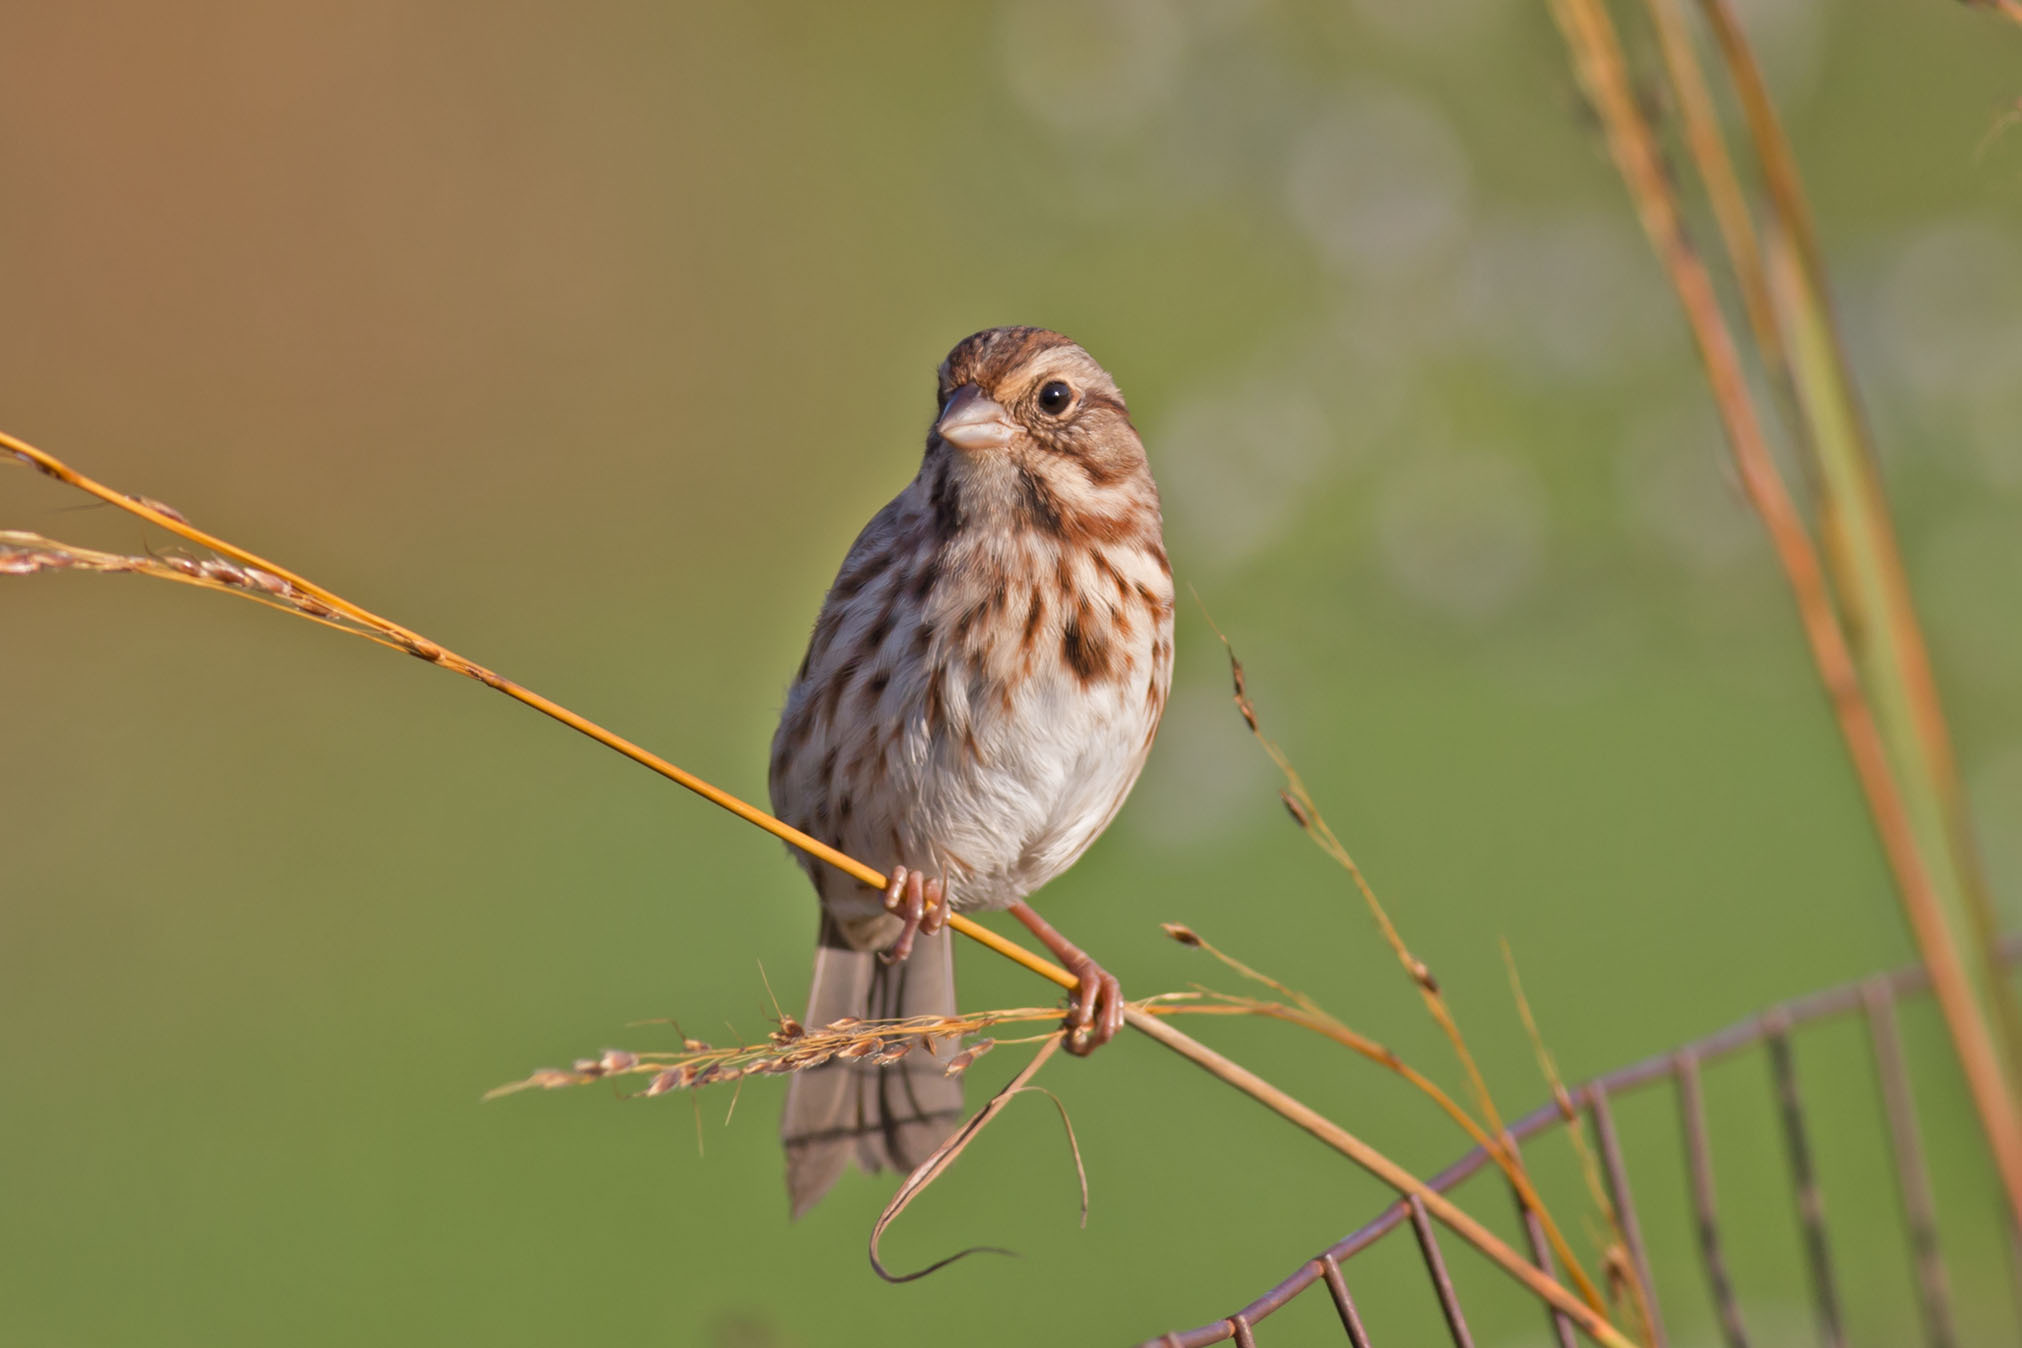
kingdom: Animalia
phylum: Chordata
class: Aves
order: Passeriformes
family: Passerellidae
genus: Melospiza
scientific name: Melospiza melodia
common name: Song sparrow
